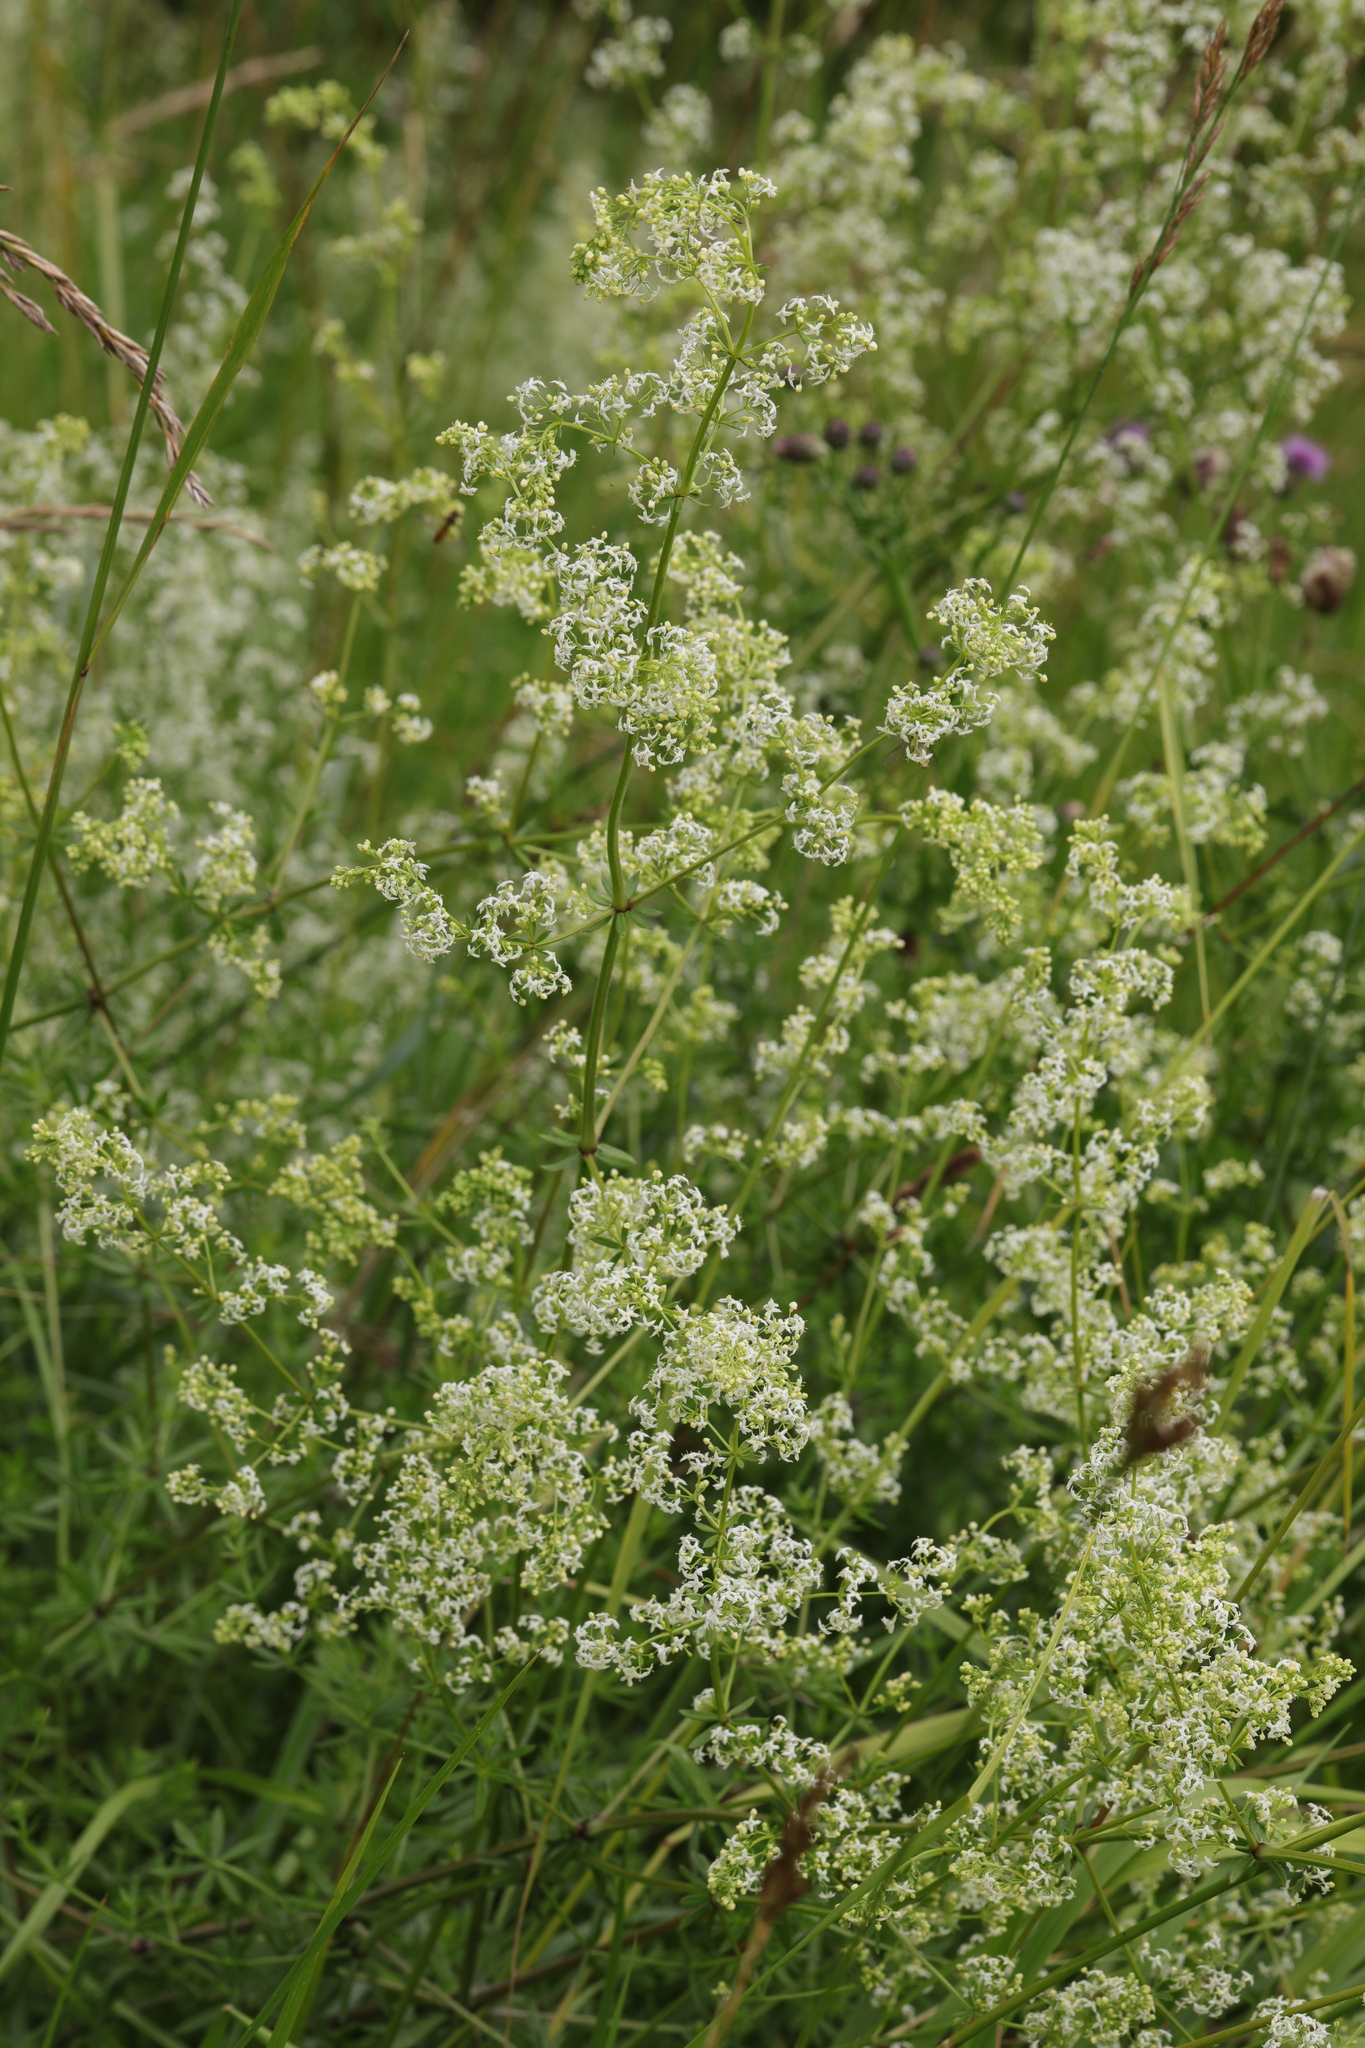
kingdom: Plantae
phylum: Tracheophyta
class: Magnoliopsida
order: Gentianales
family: Rubiaceae
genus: Galium
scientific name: Galium album
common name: White bedstraw
